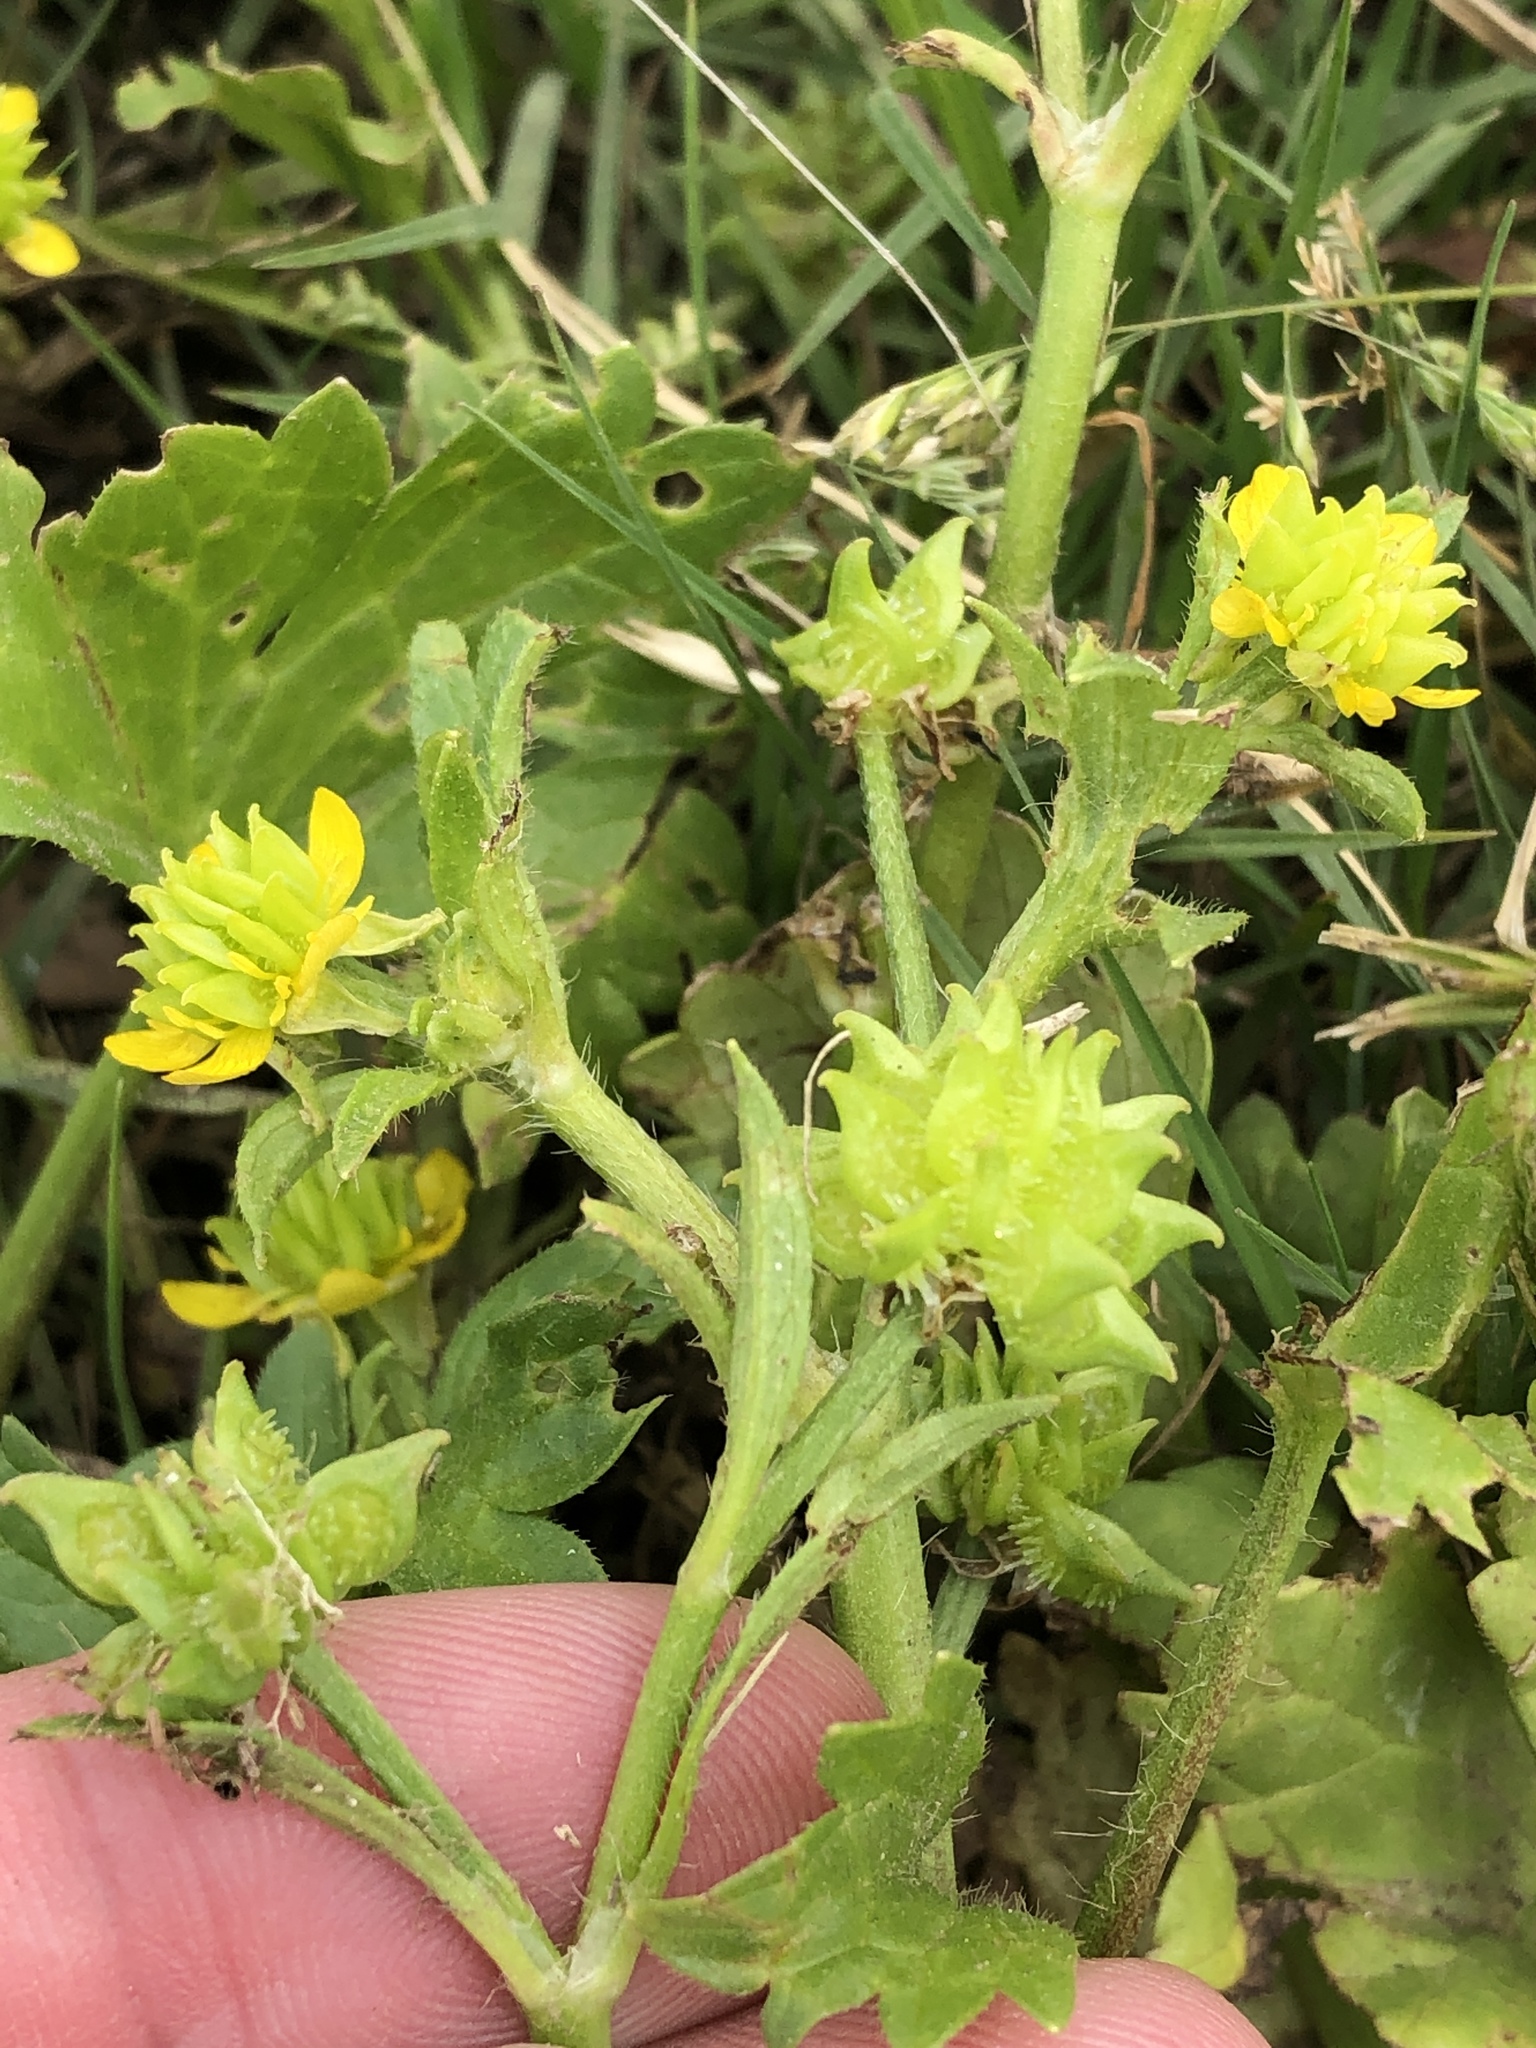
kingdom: Plantae
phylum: Tracheophyta
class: Magnoliopsida
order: Ranunculales
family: Ranunculaceae
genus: Ranunculus
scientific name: Ranunculus muricatus
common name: Rough-fruited buttercup
